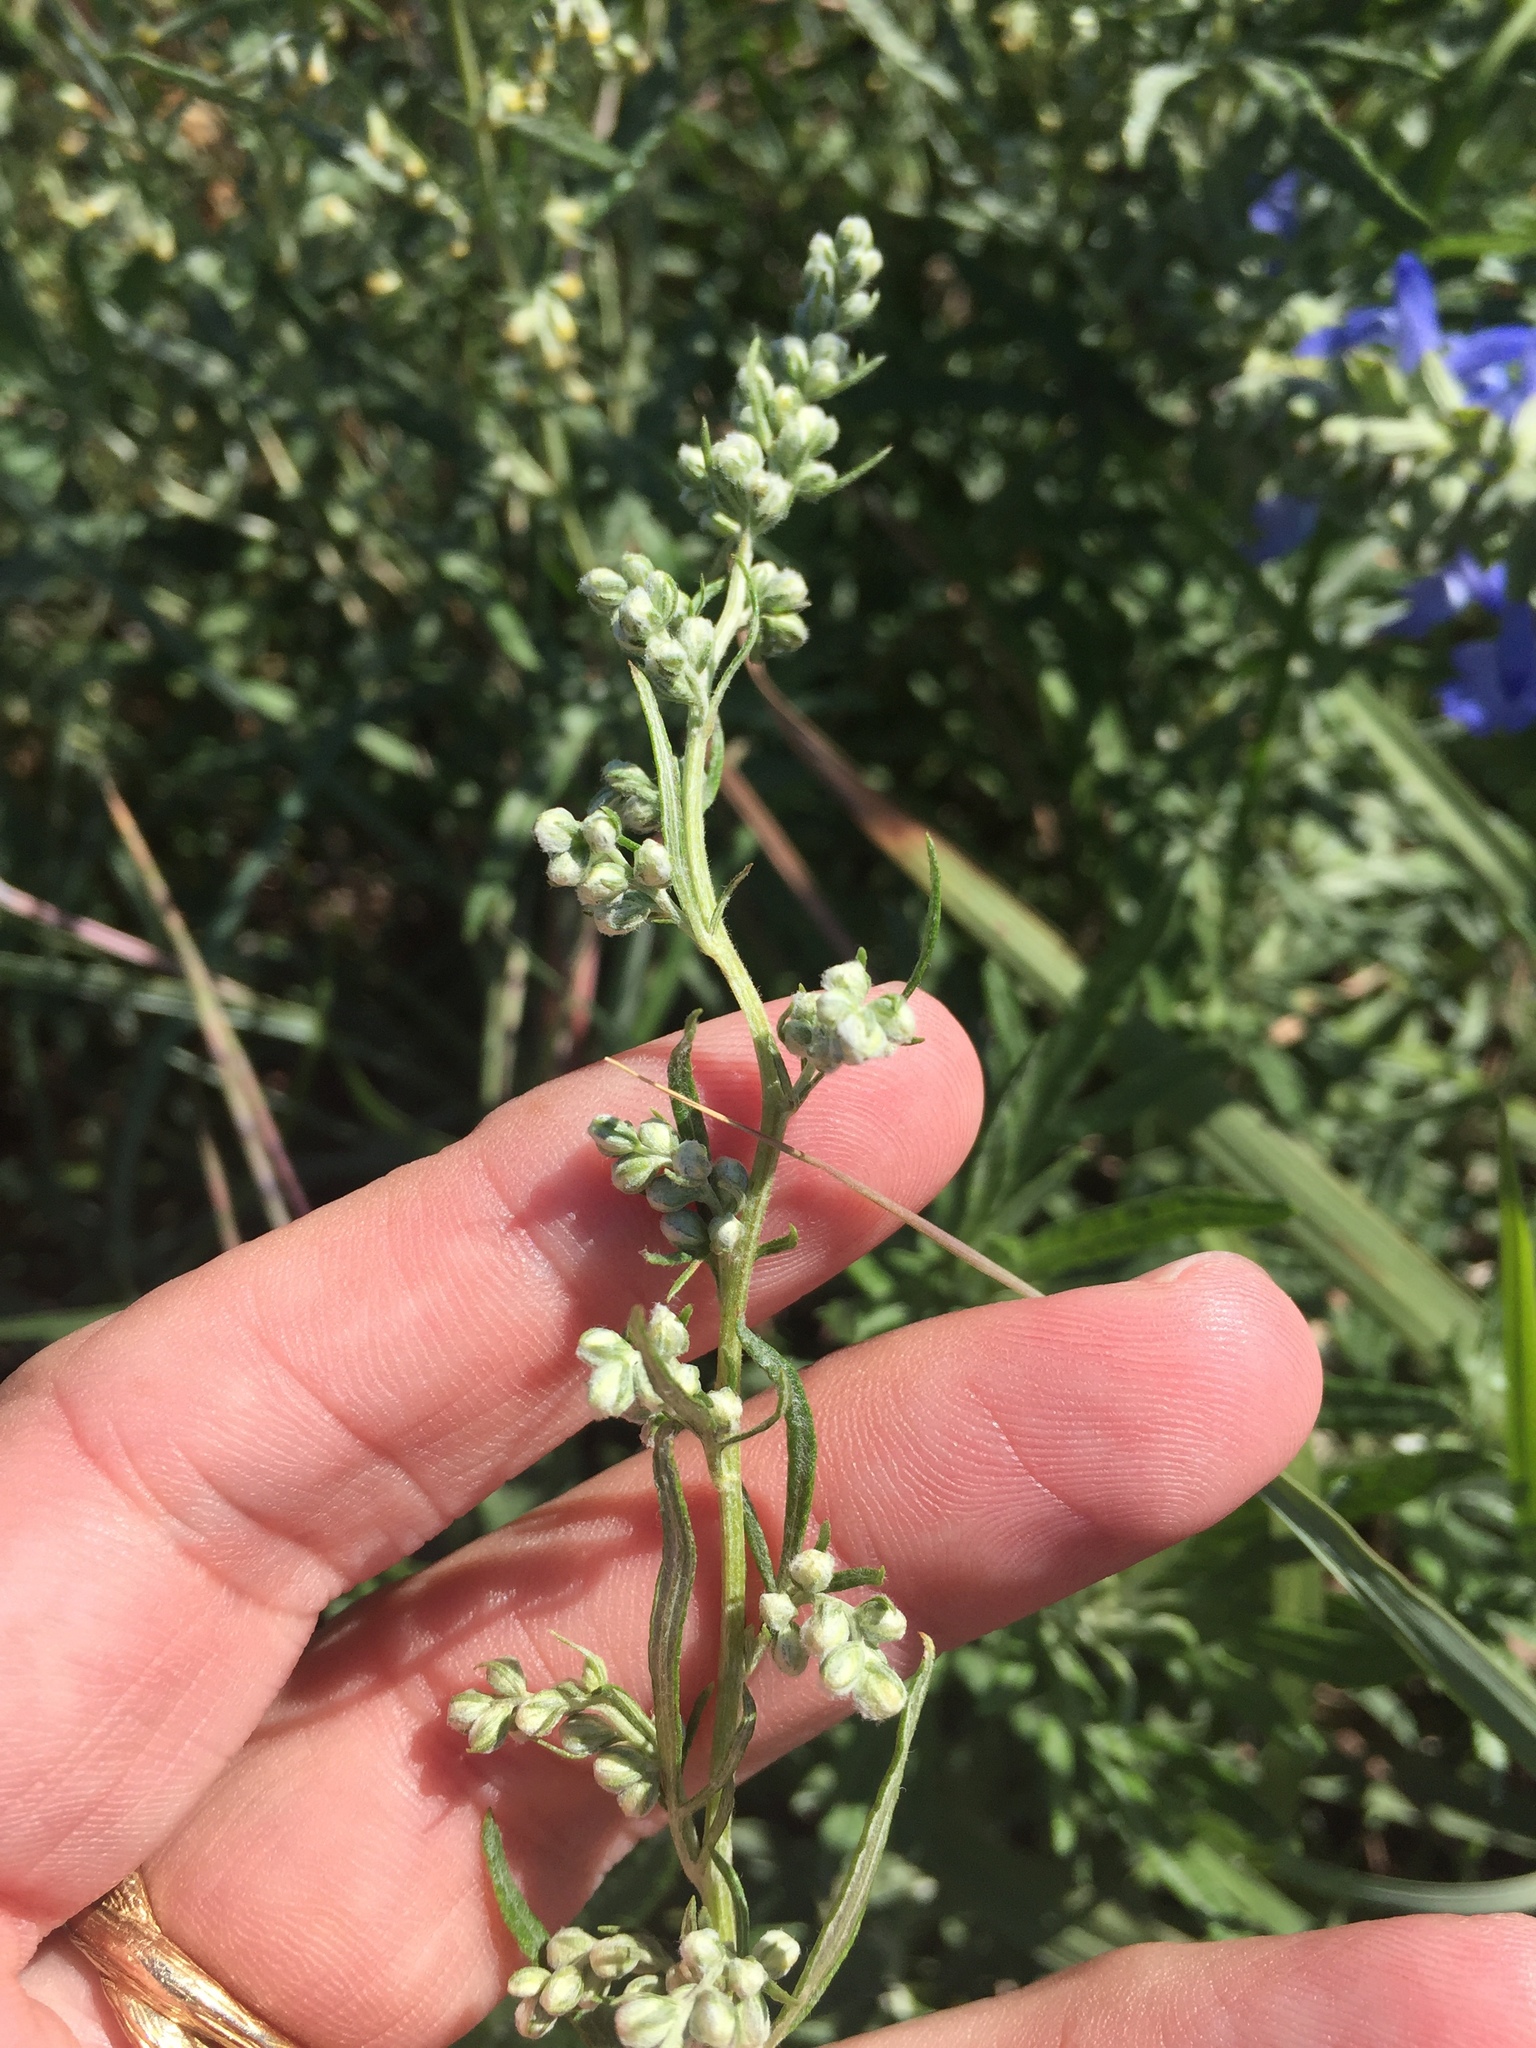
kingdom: Plantae
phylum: Tracheophyta
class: Magnoliopsida
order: Asterales
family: Asteraceae
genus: Artemisia
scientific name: Artemisia ludoviciana
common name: Western mugwort
